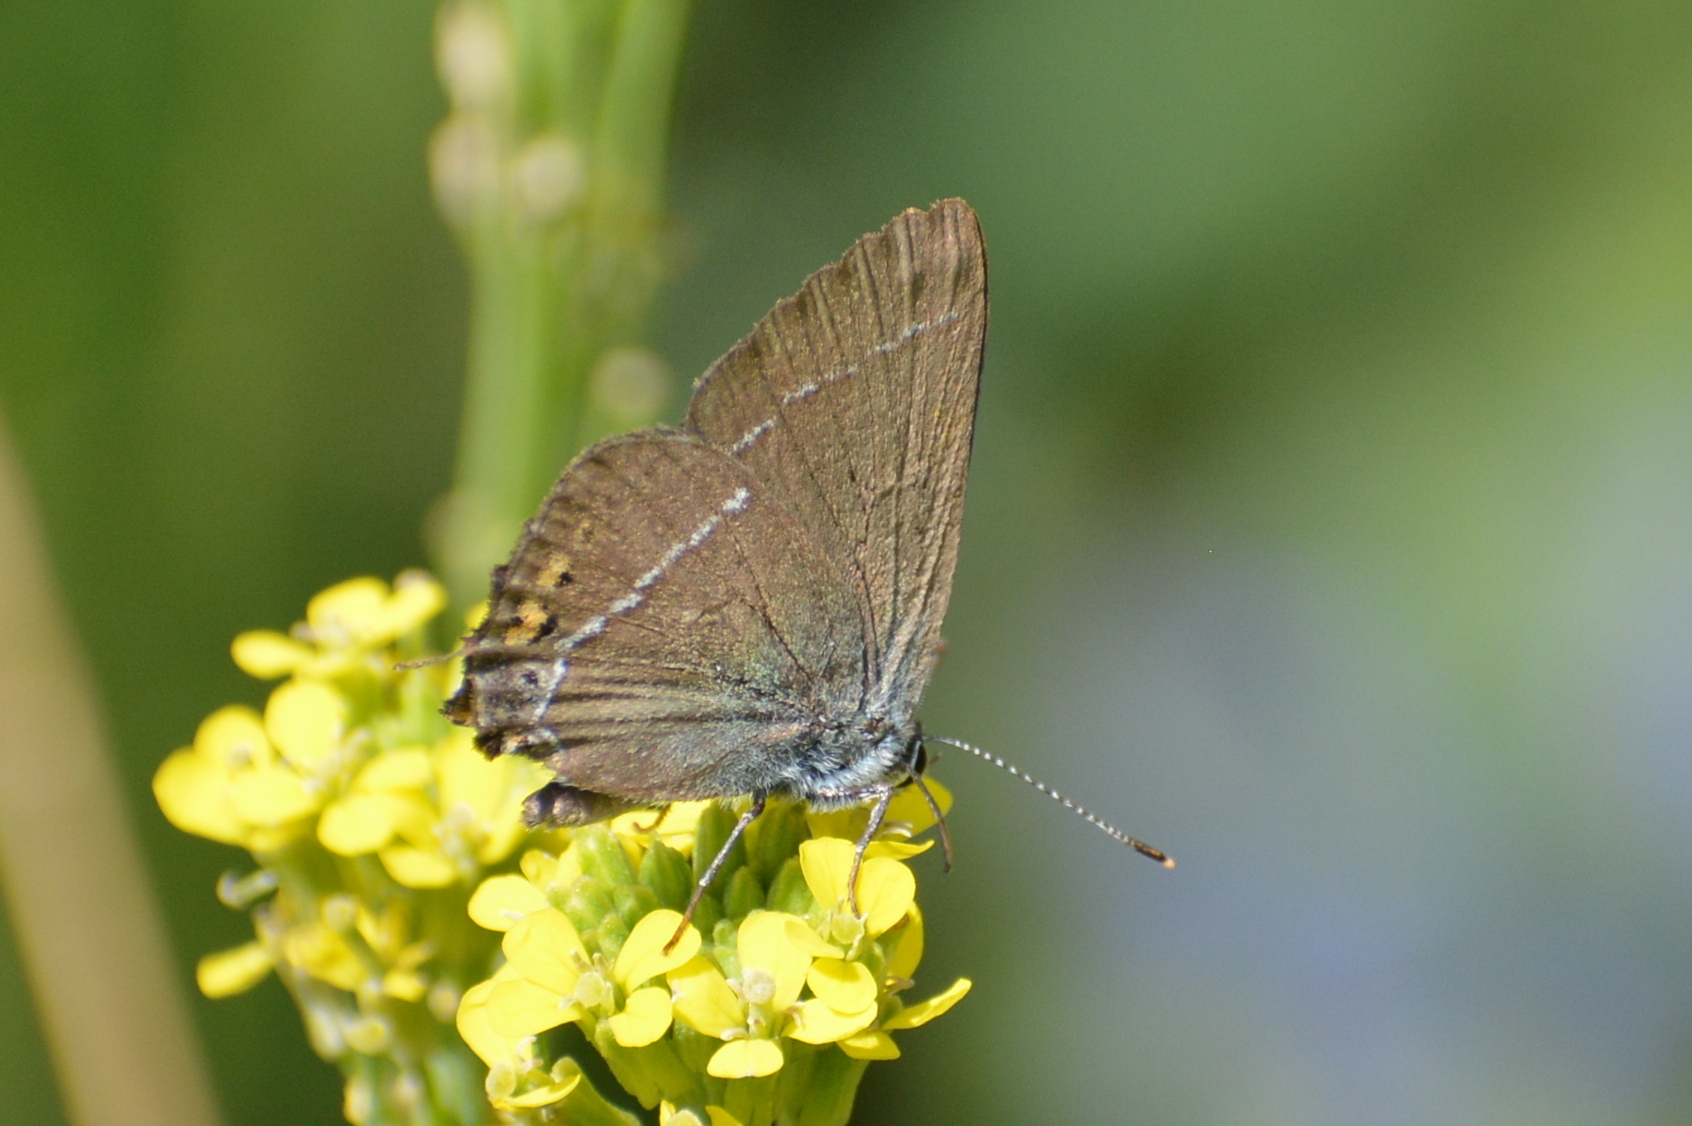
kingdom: Animalia
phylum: Arthropoda
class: Insecta
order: Lepidoptera
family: Lycaenidae
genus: Tuttiola
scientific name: Tuttiola spini
